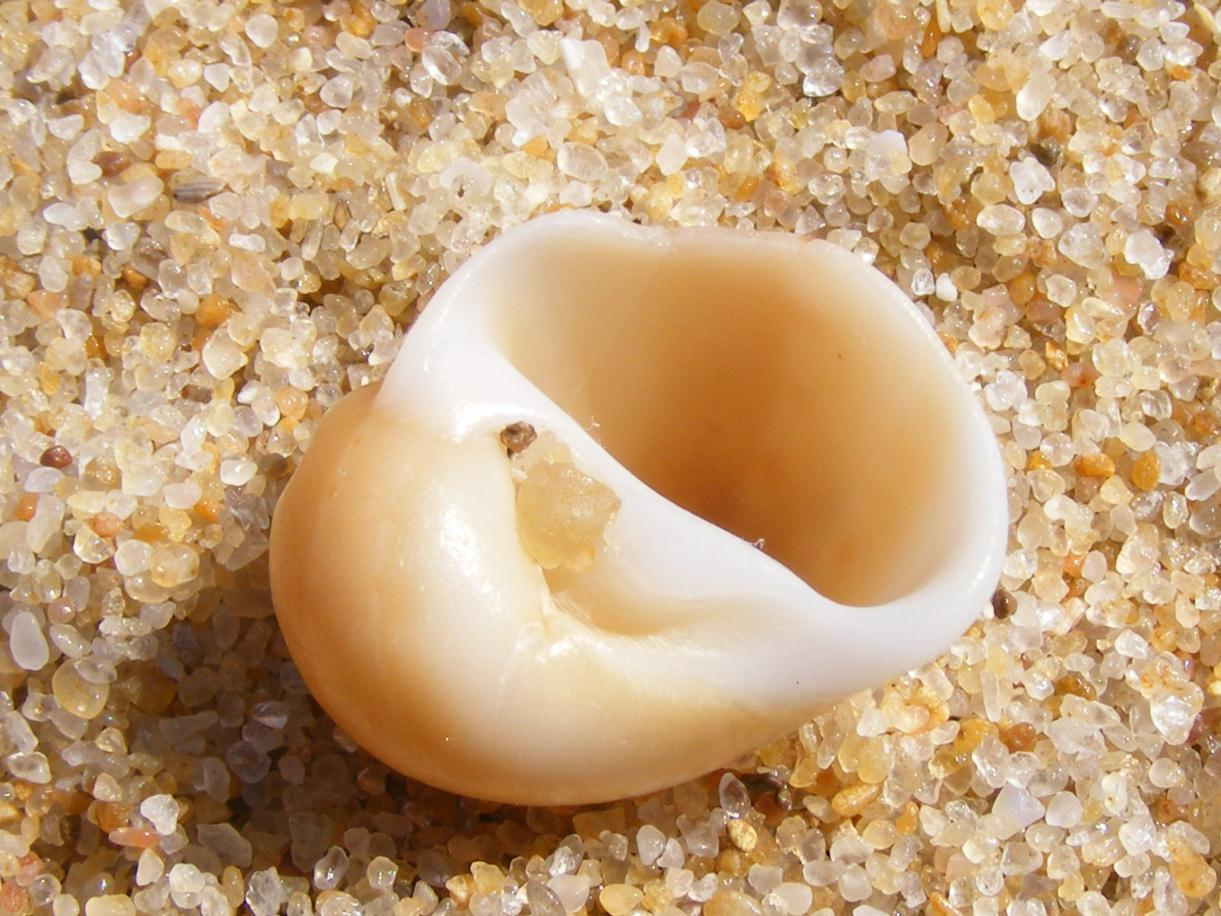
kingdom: Animalia
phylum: Mollusca
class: Gastropoda
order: Littorinimorpha
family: Naticidae
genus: Glyphepithema
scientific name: Glyphepithema alapapilionis
